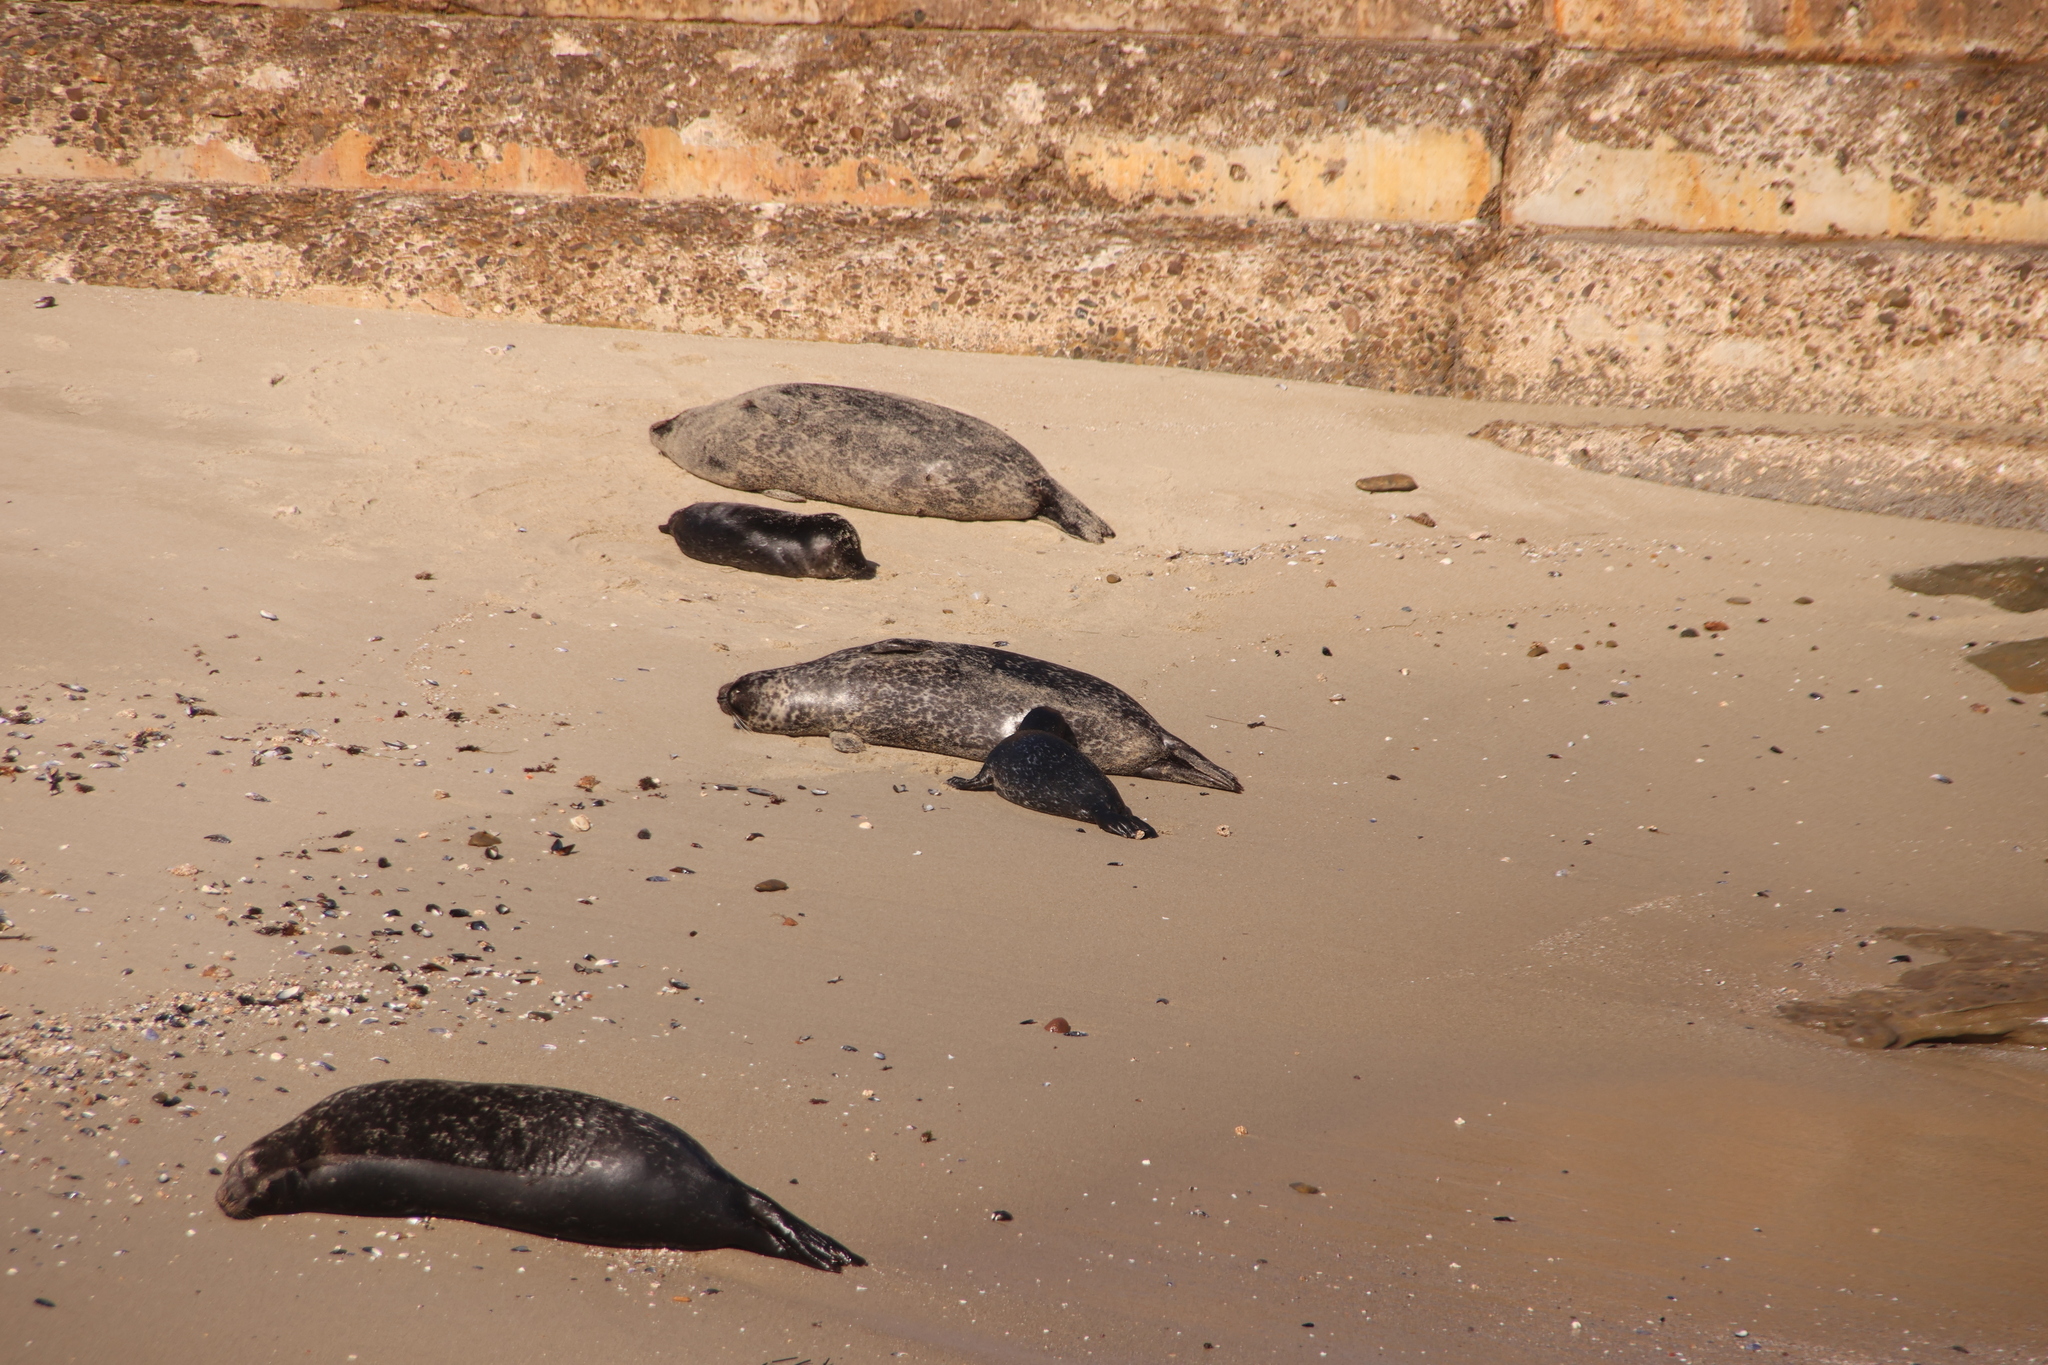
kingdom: Animalia
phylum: Chordata
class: Mammalia
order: Carnivora
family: Phocidae
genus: Phoca
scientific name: Phoca vitulina
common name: Harbor seal
